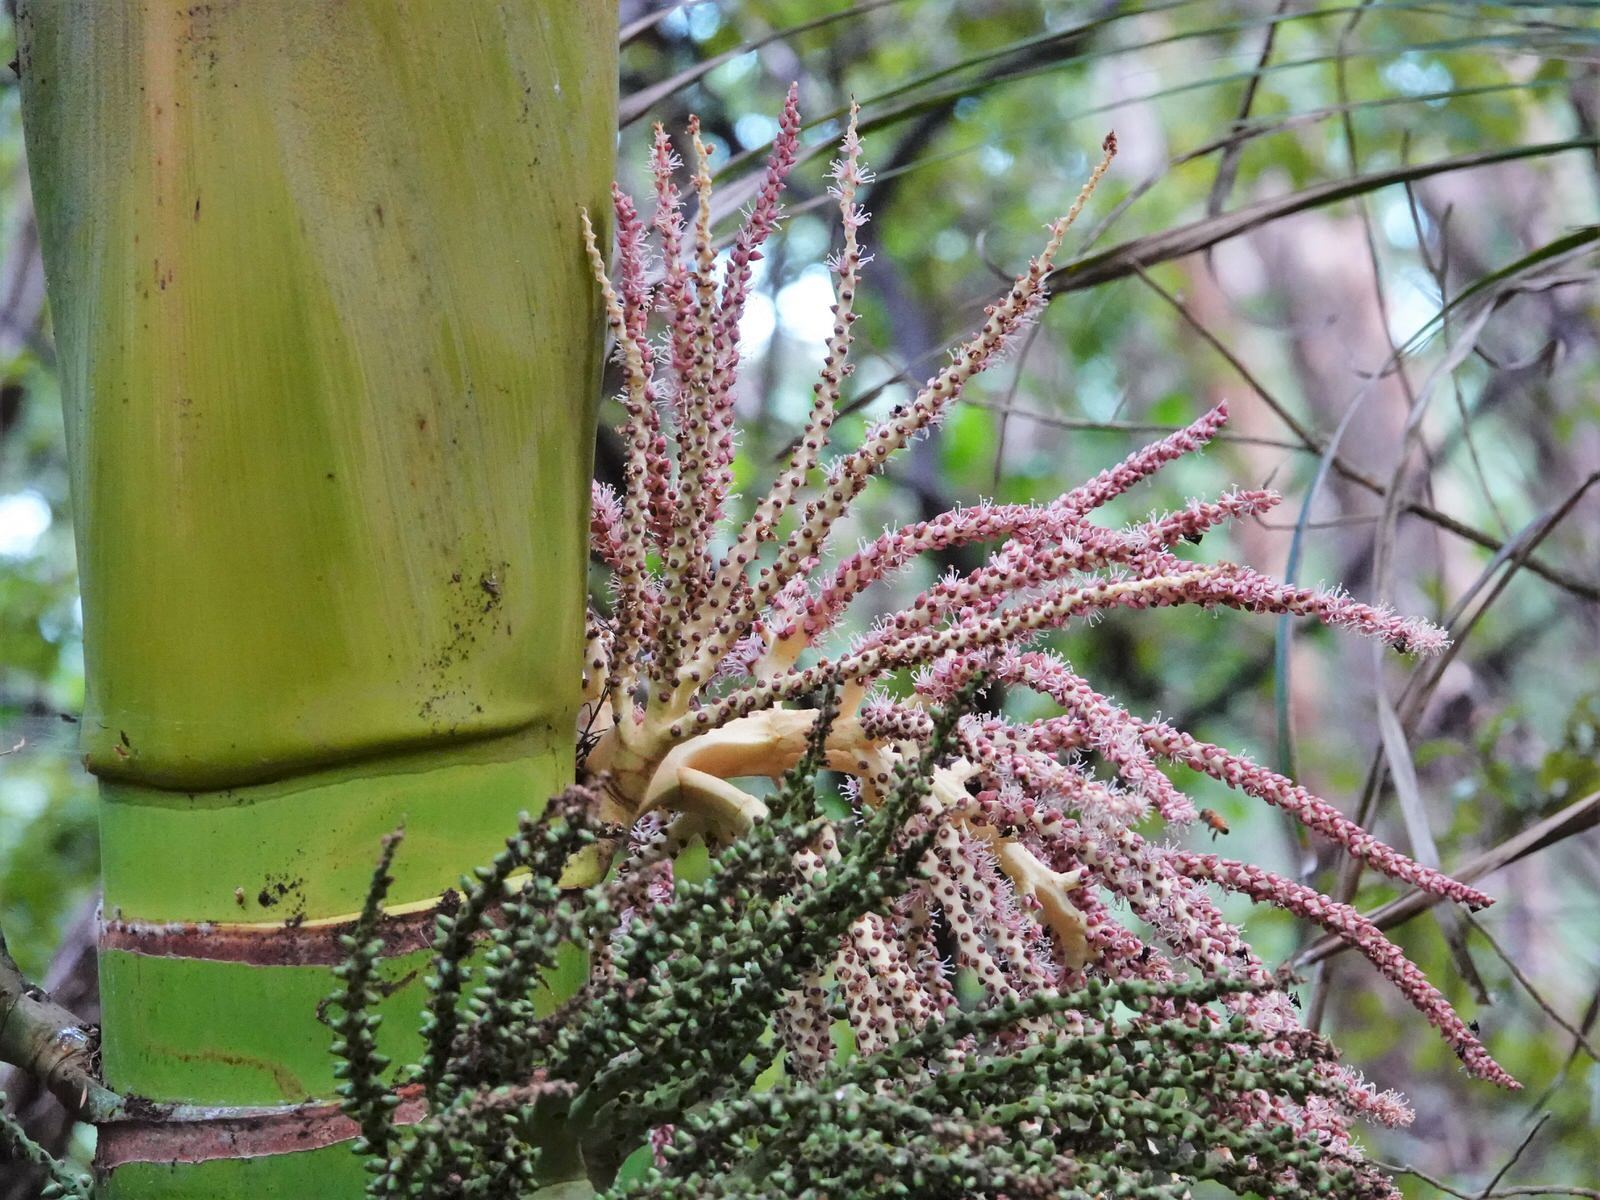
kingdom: Plantae
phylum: Tracheophyta
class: Liliopsida
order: Arecales
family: Arecaceae
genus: Rhopalostylis
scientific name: Rhopalostylis sapida
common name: Feather-duster palm
